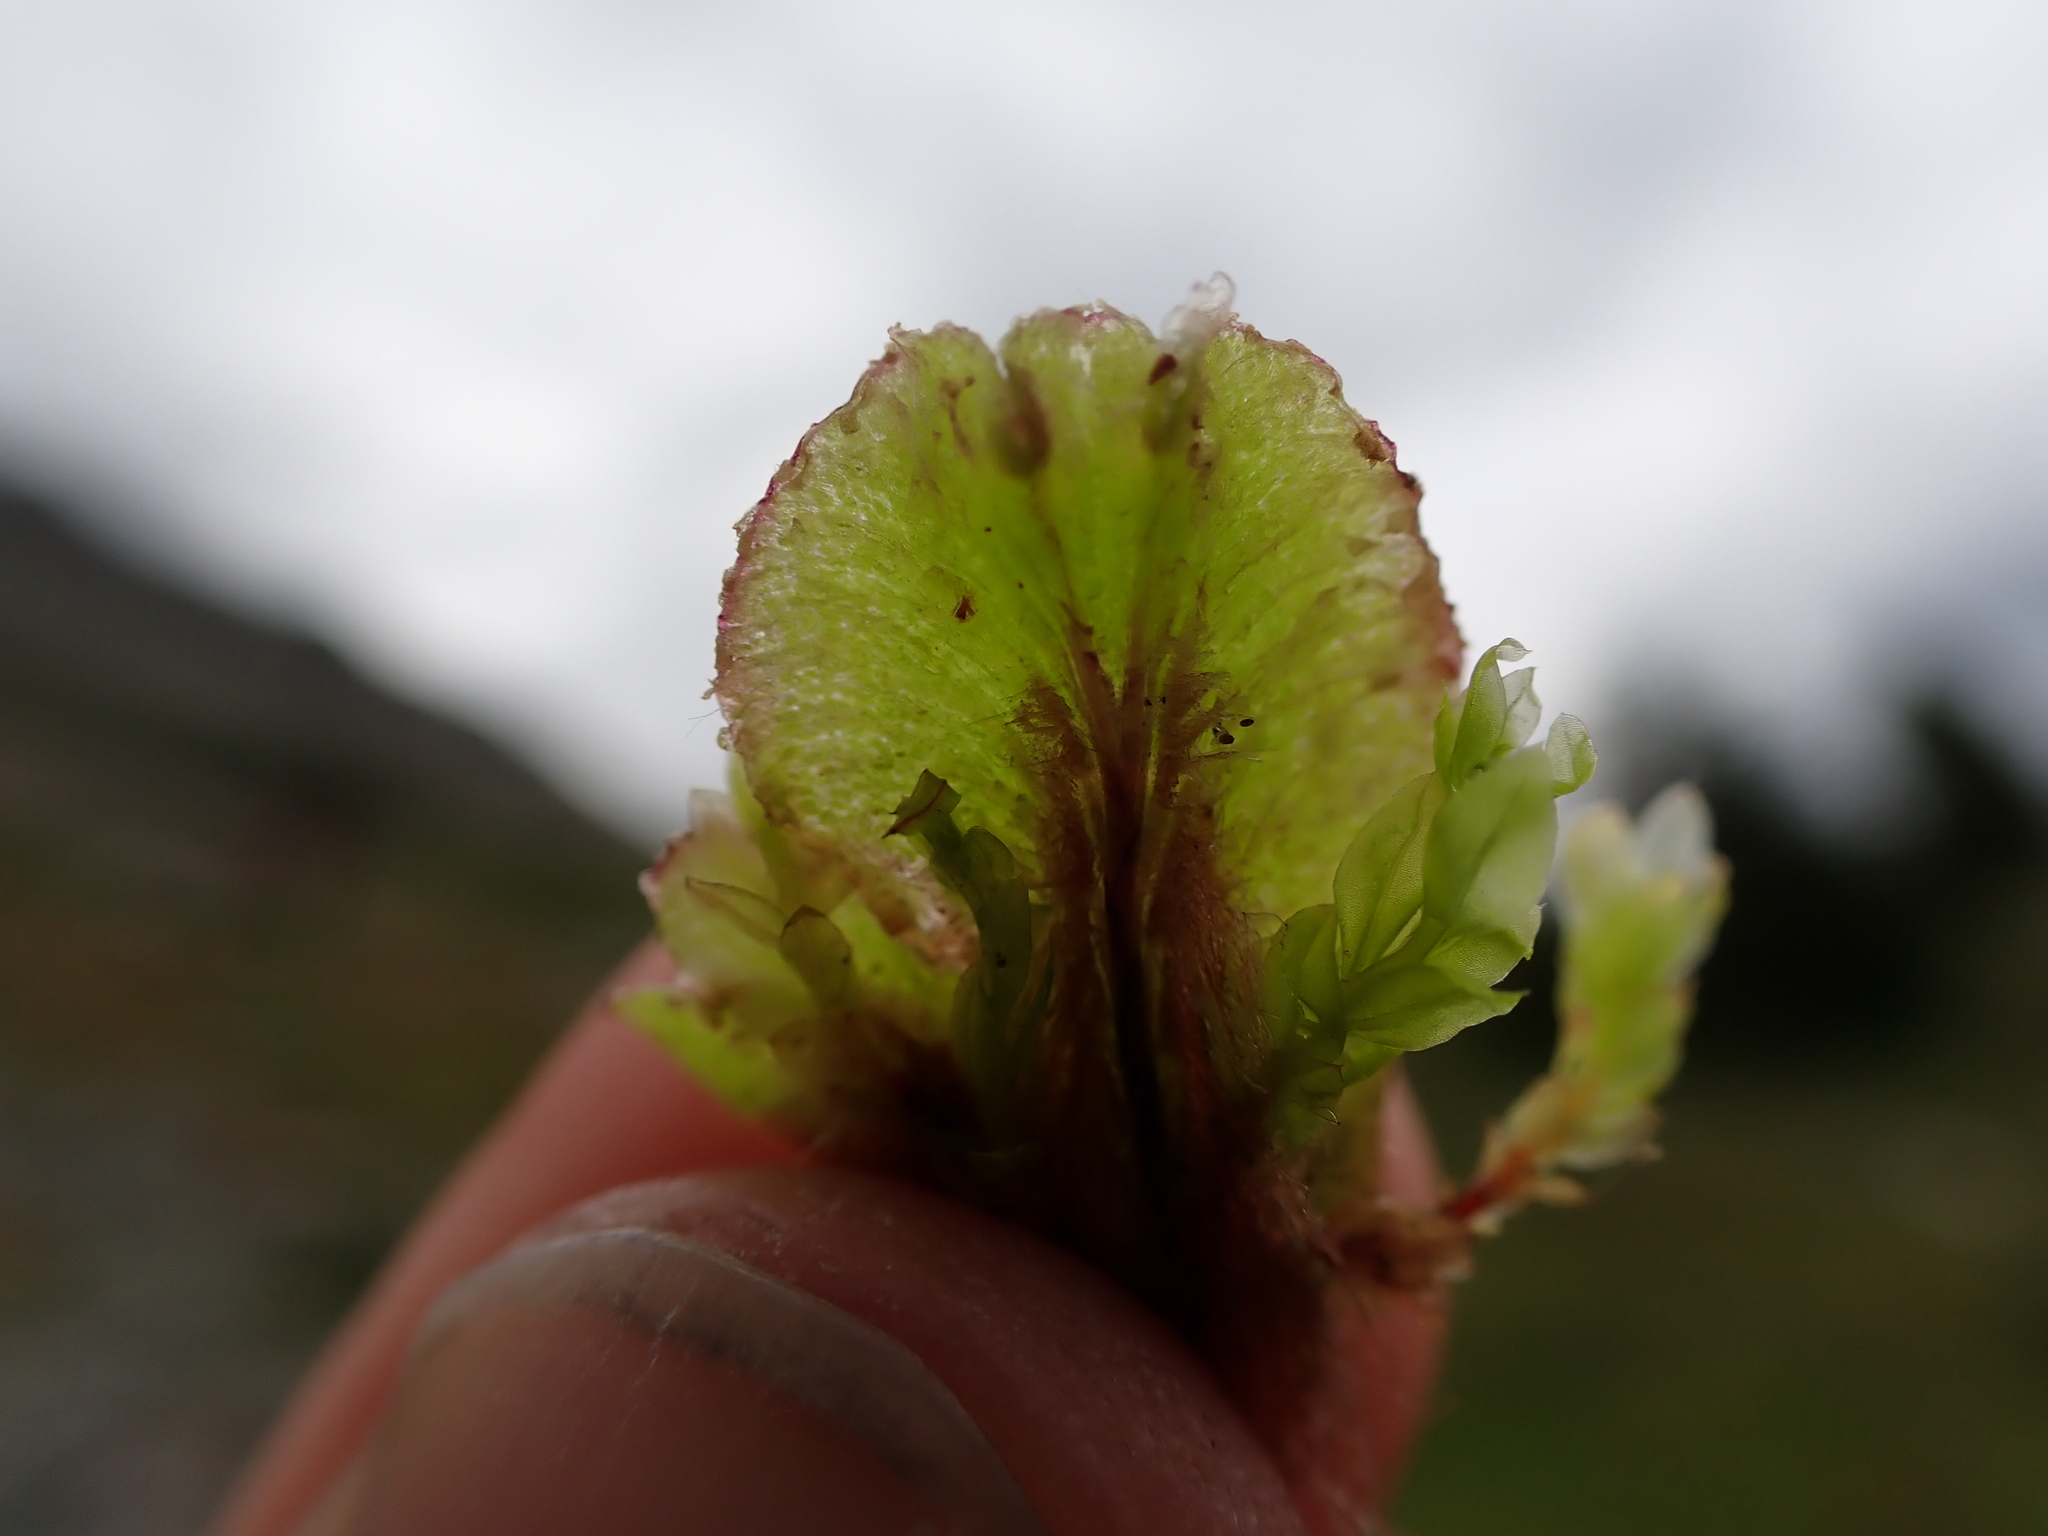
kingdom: Plantae
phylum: Marchantiophyta
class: Marchantiopsida
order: Marchantiales
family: Marchantiaceae
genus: Marchantia
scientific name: Marchantia polymorpha
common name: Common liverwort
